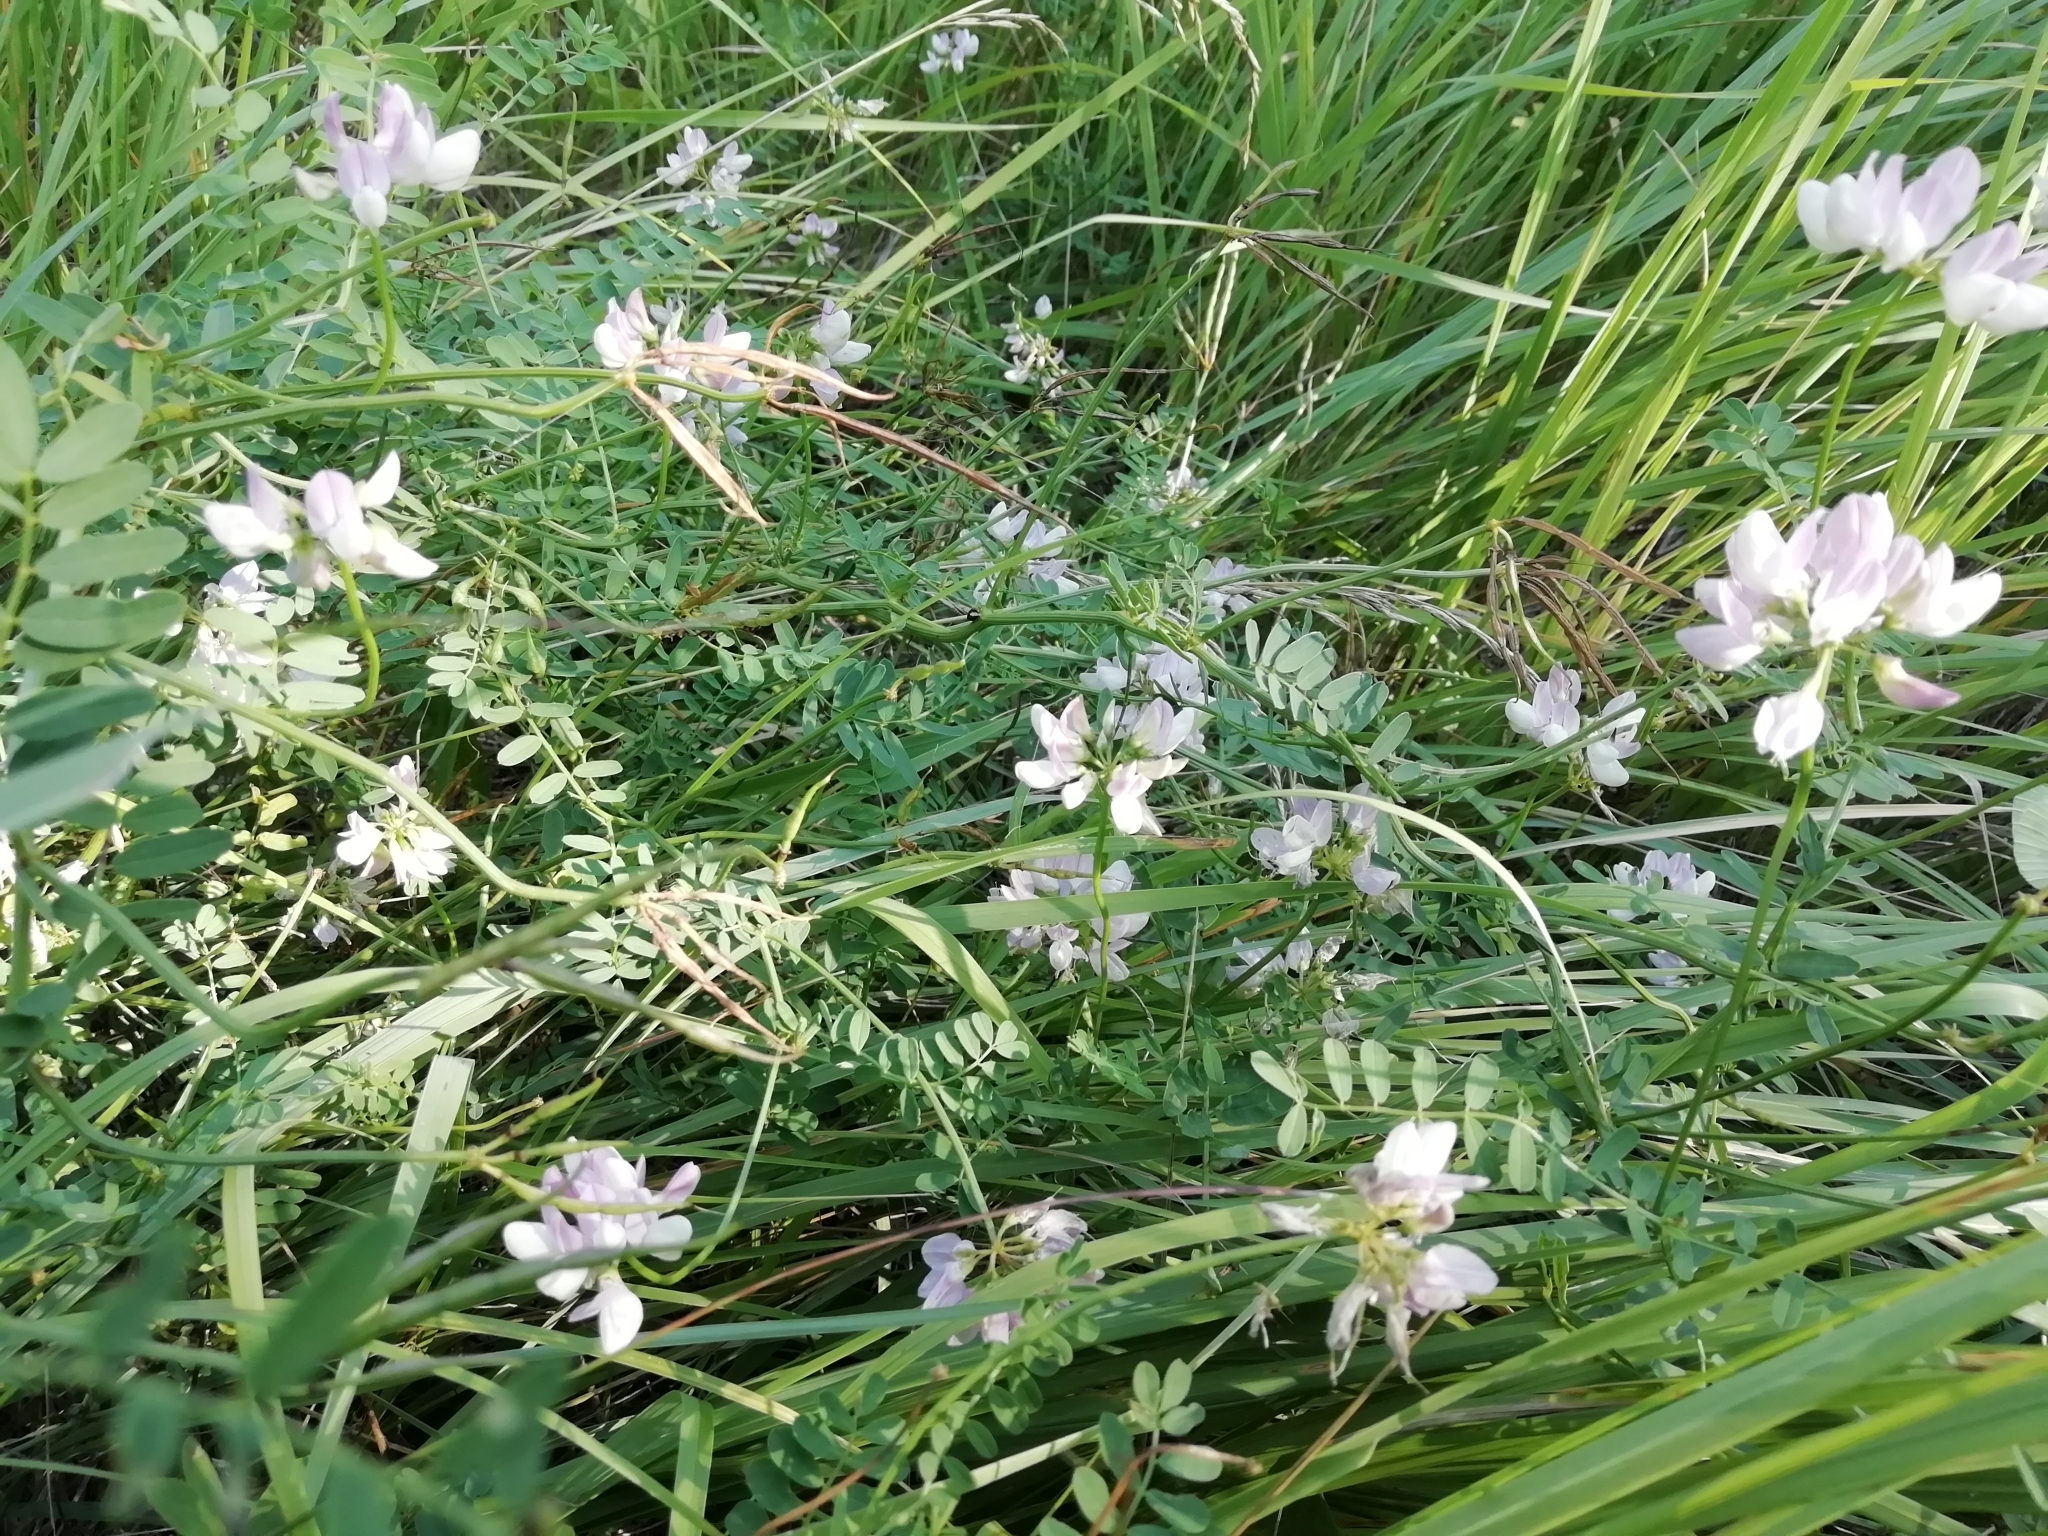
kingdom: Plantae
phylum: Tracheophyta
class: Magnoliopsida
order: Fabales
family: Fabaceae
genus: Coronilla
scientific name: Coronilla varia
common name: Crownvetch
